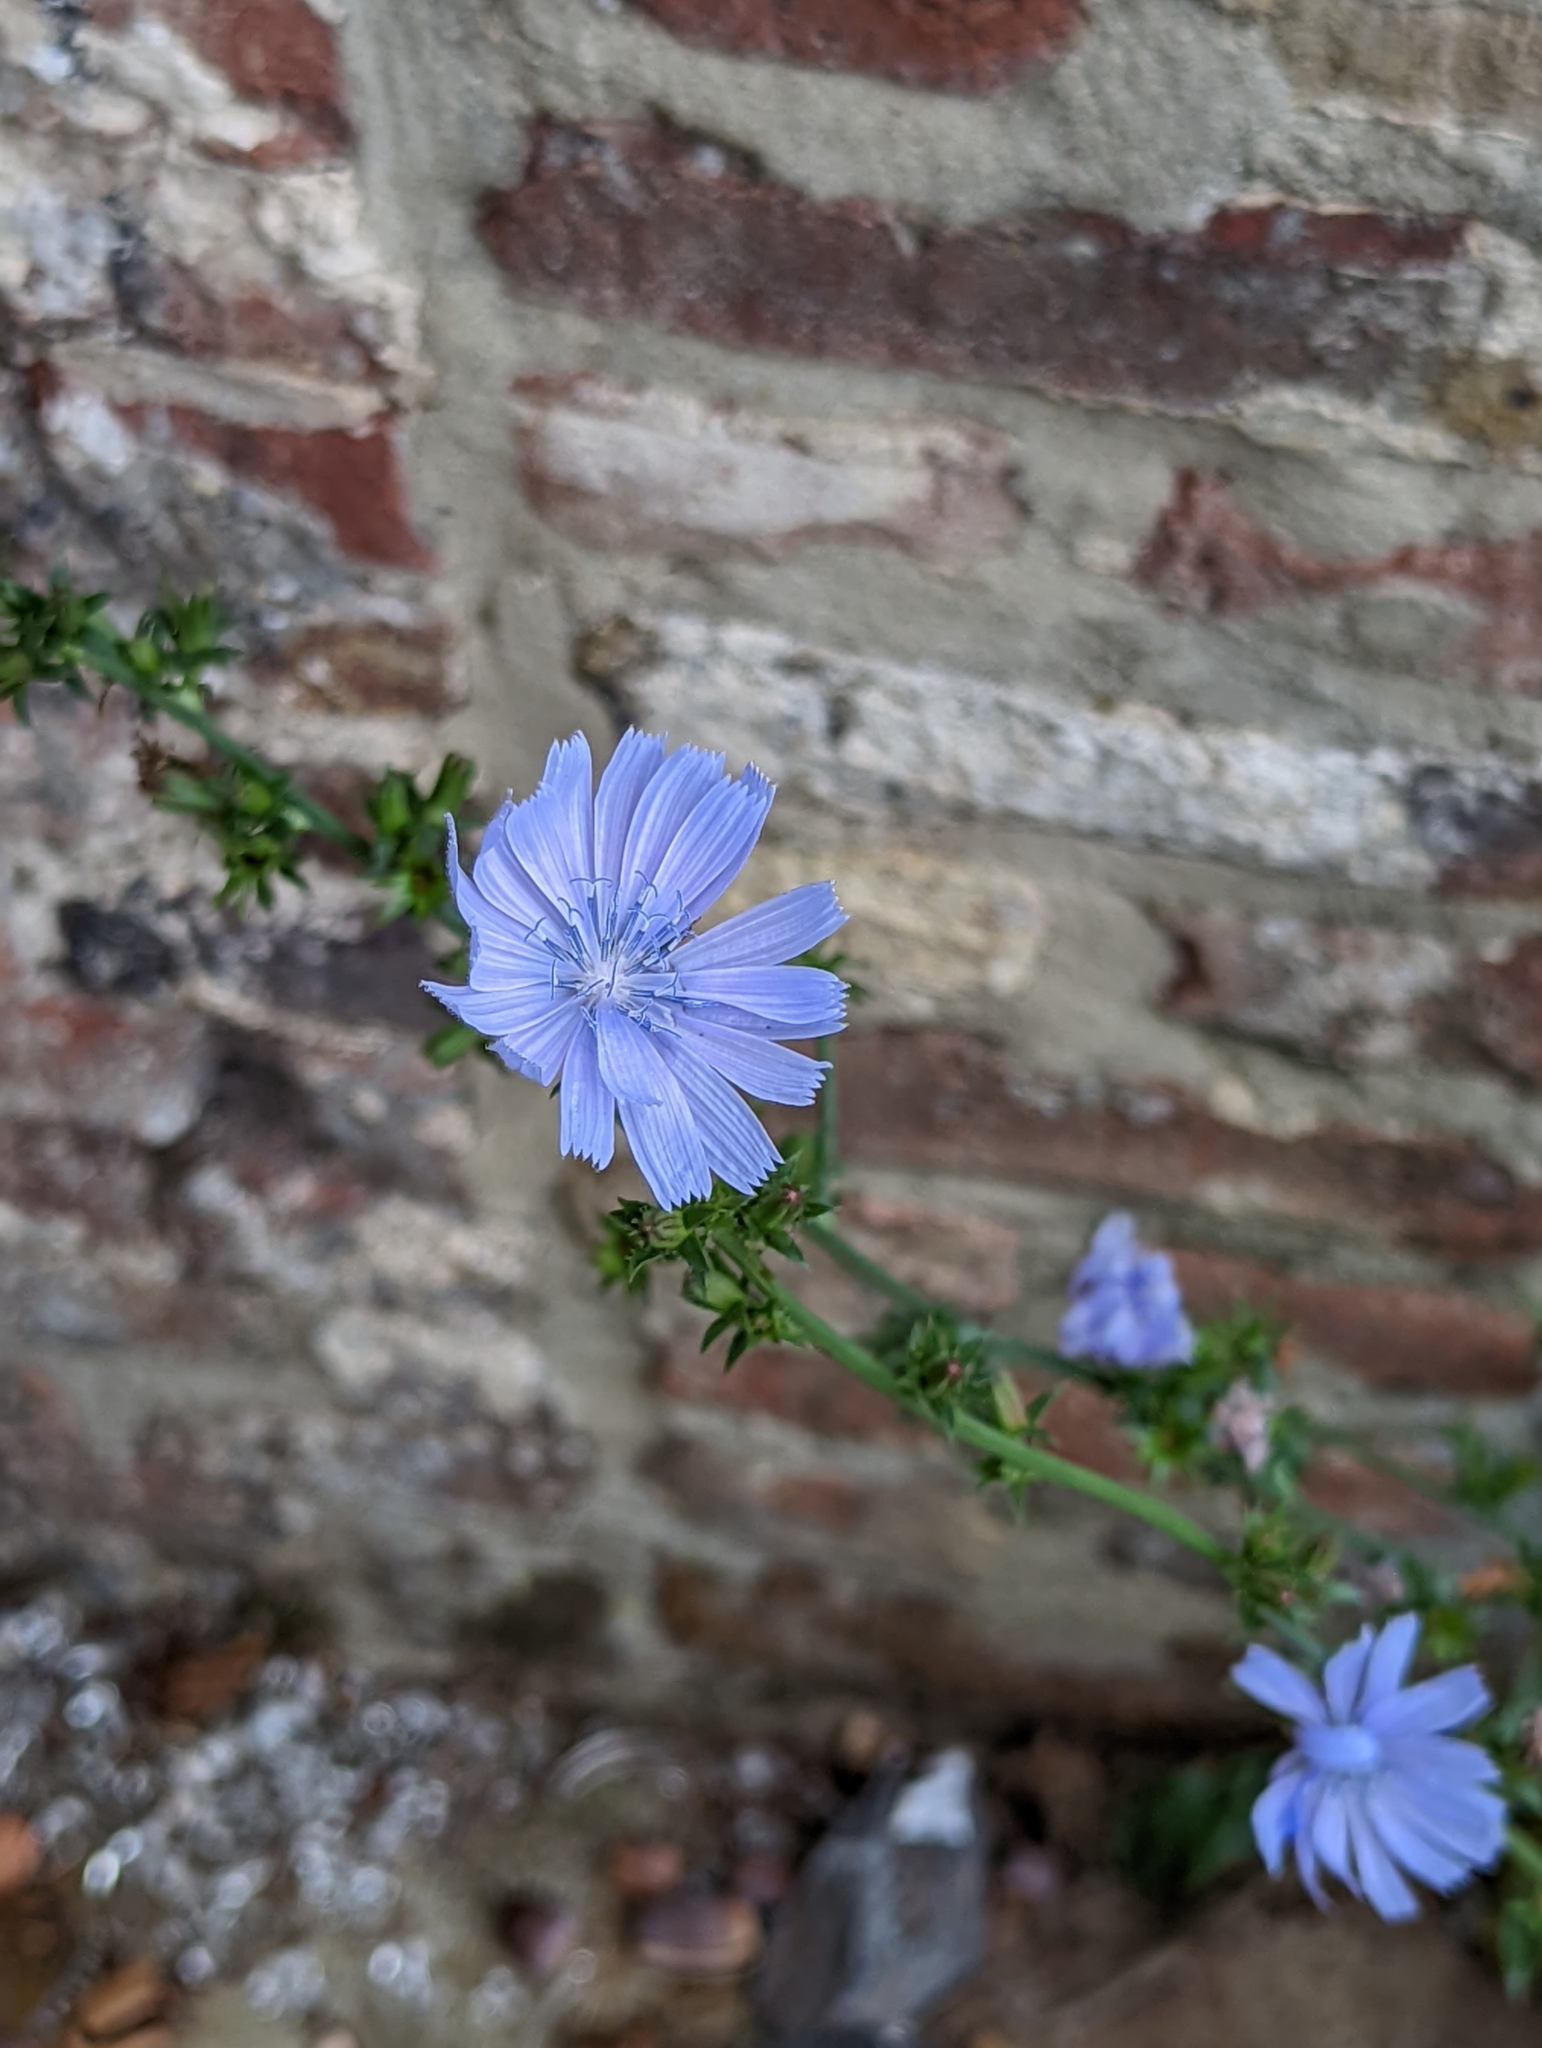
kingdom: Plantae
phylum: Tracheophyta
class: Magnoliopsida
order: Asterales
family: Asteraceae
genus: Cichorium
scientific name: Cichorium intybus
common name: Chicory
